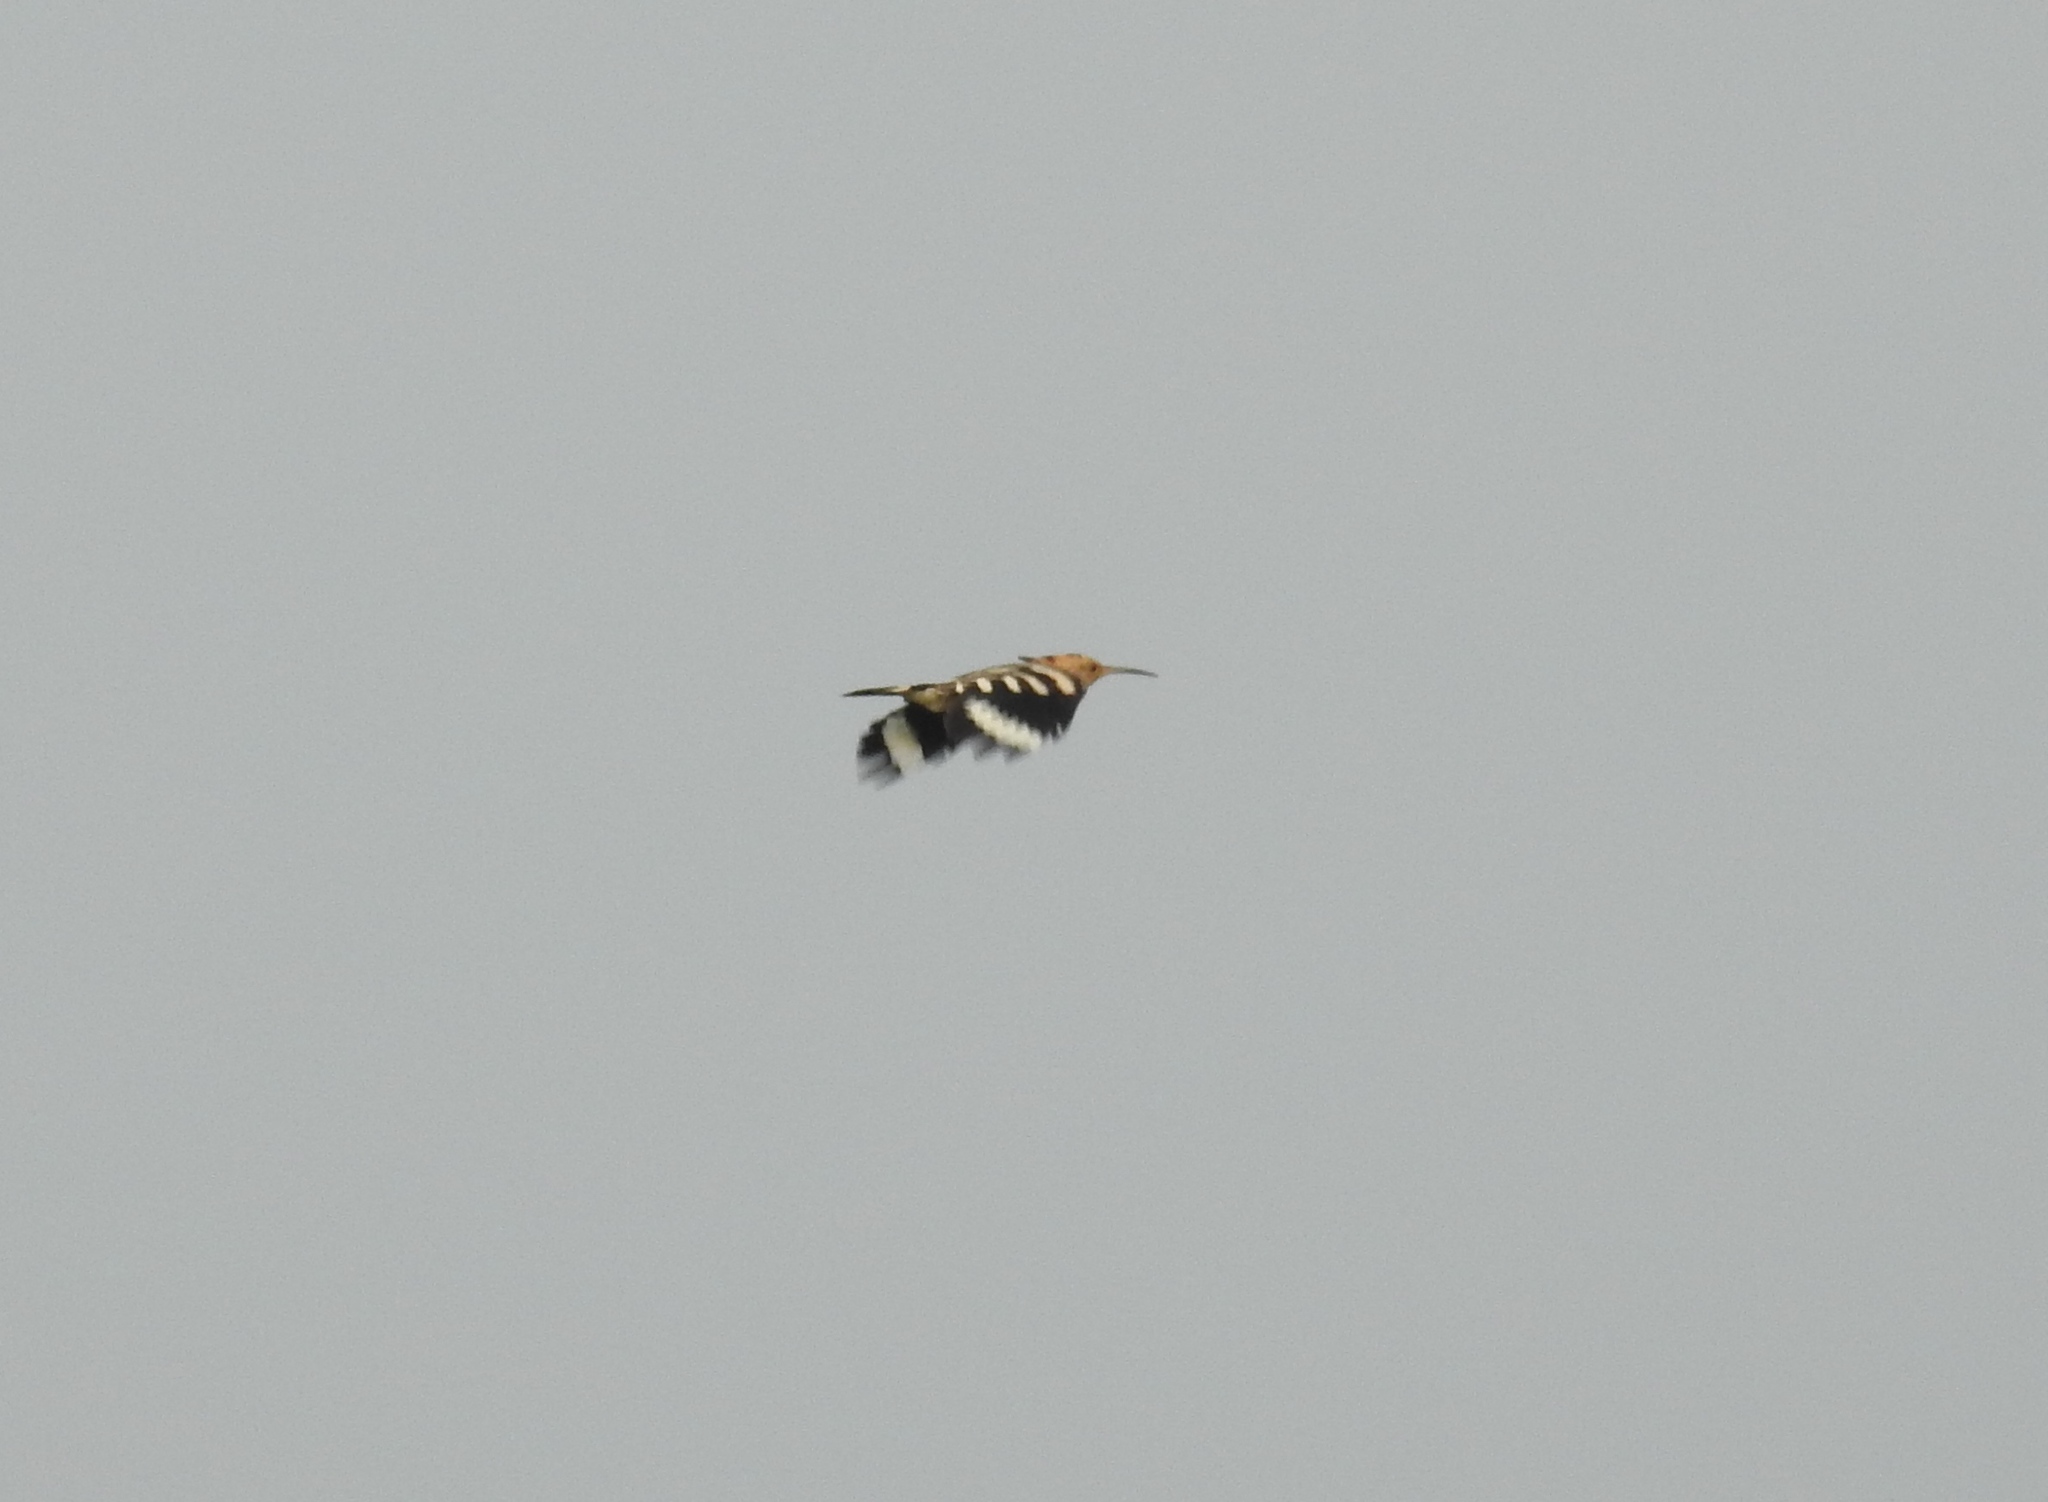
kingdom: Animalia
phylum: Chordata
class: Aves
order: Bucerotiformes
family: Upupidae
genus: Upupa
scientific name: Upupa epops
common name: Eurasian hoopoe
